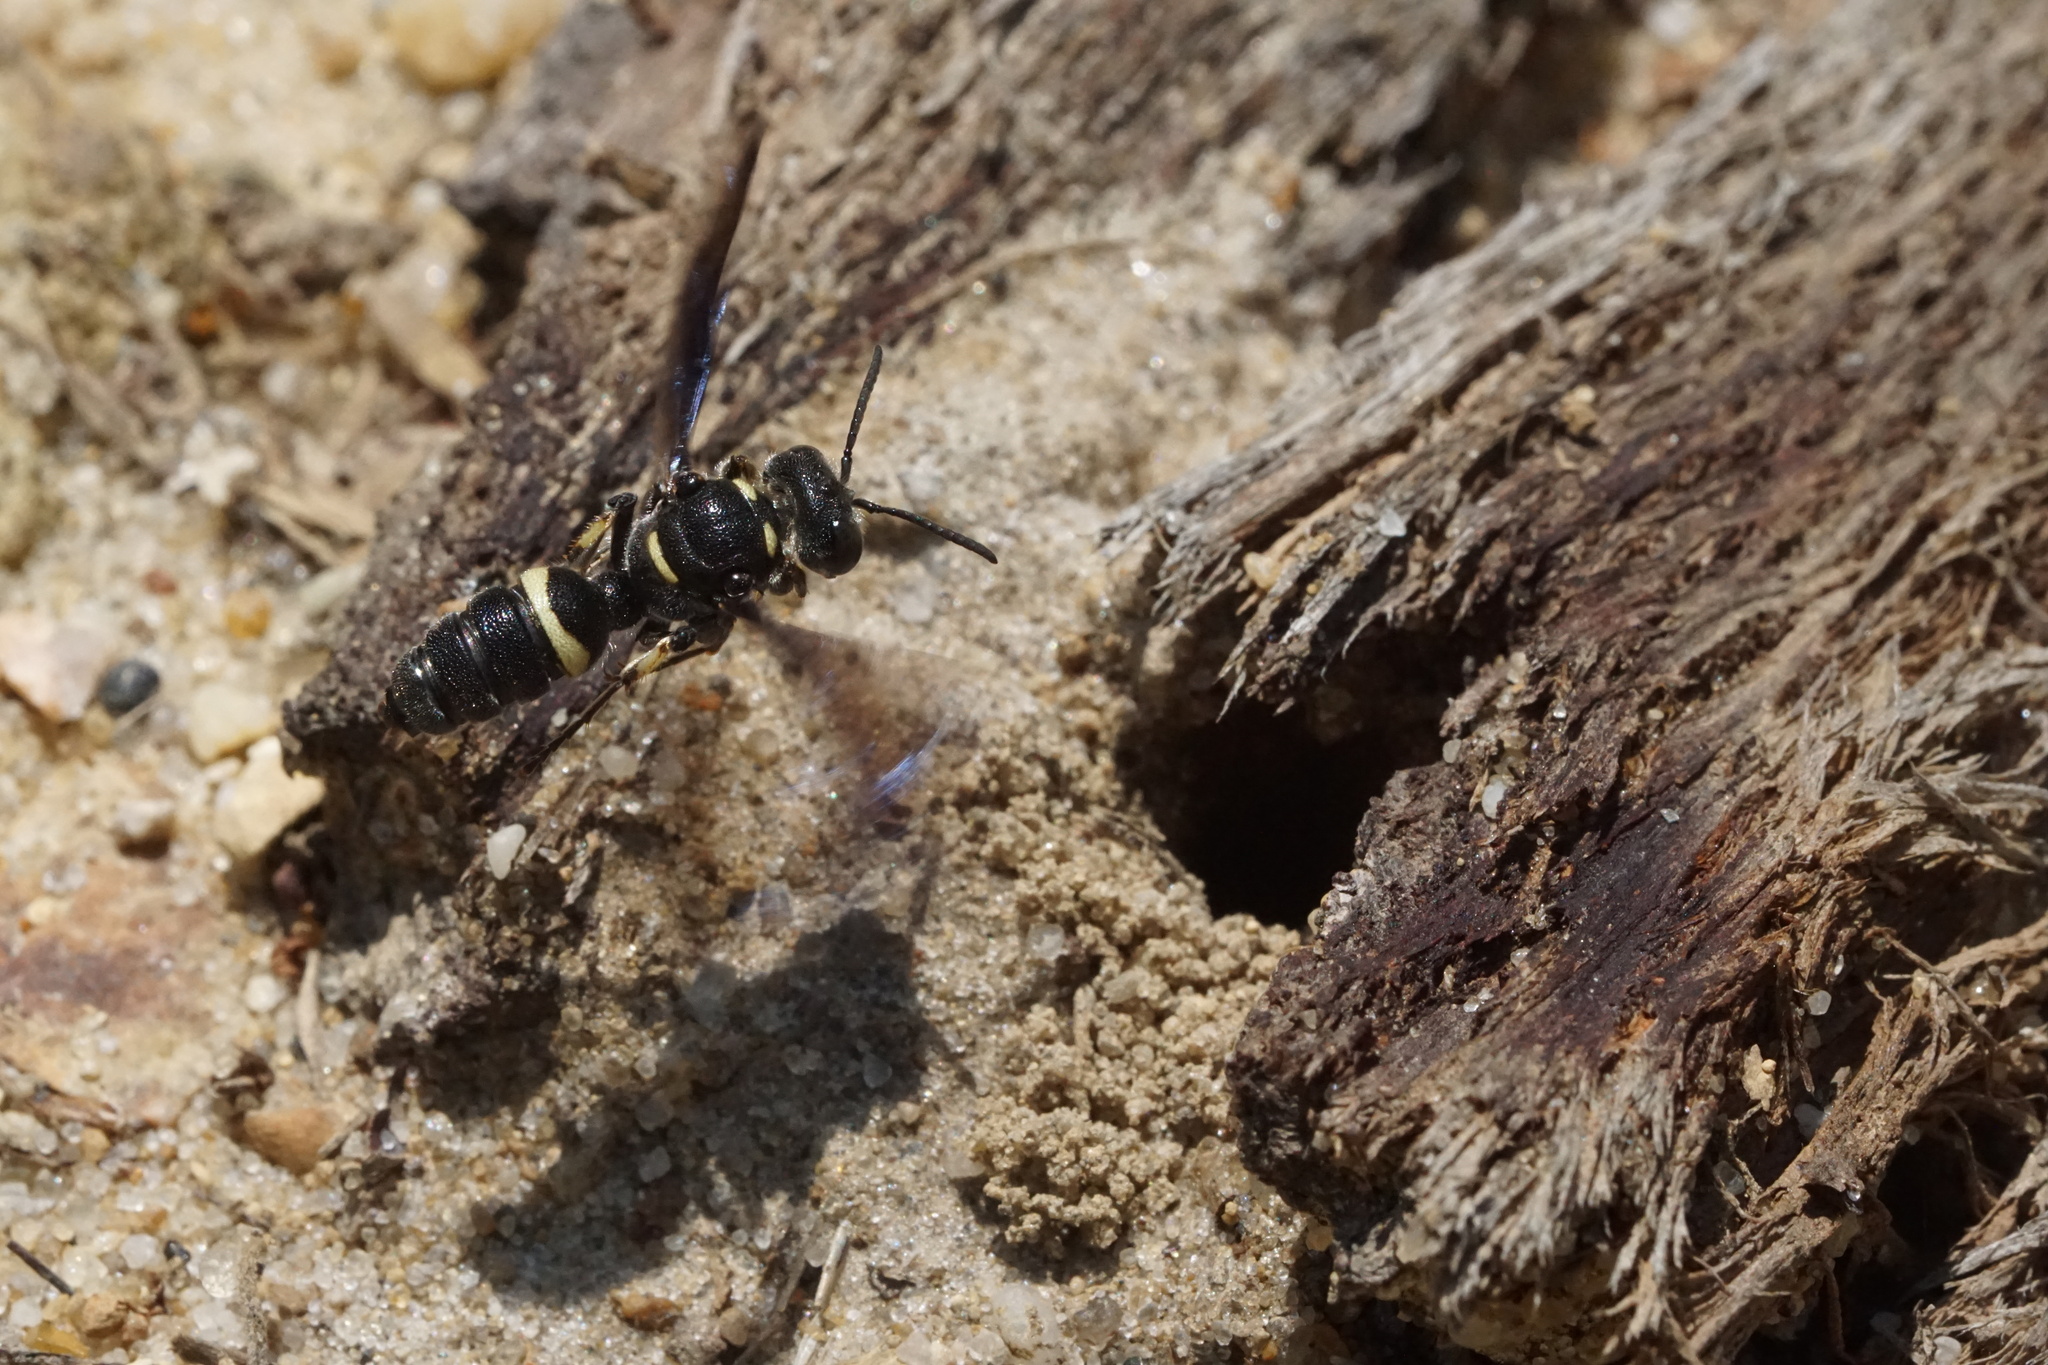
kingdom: Animalia
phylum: Arthropoda
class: Insecta
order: Hymenoptera
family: Crabronidae
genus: Cerceris
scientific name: Cerceris fumipennis
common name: Smokey-winged beetle bandit wasp
